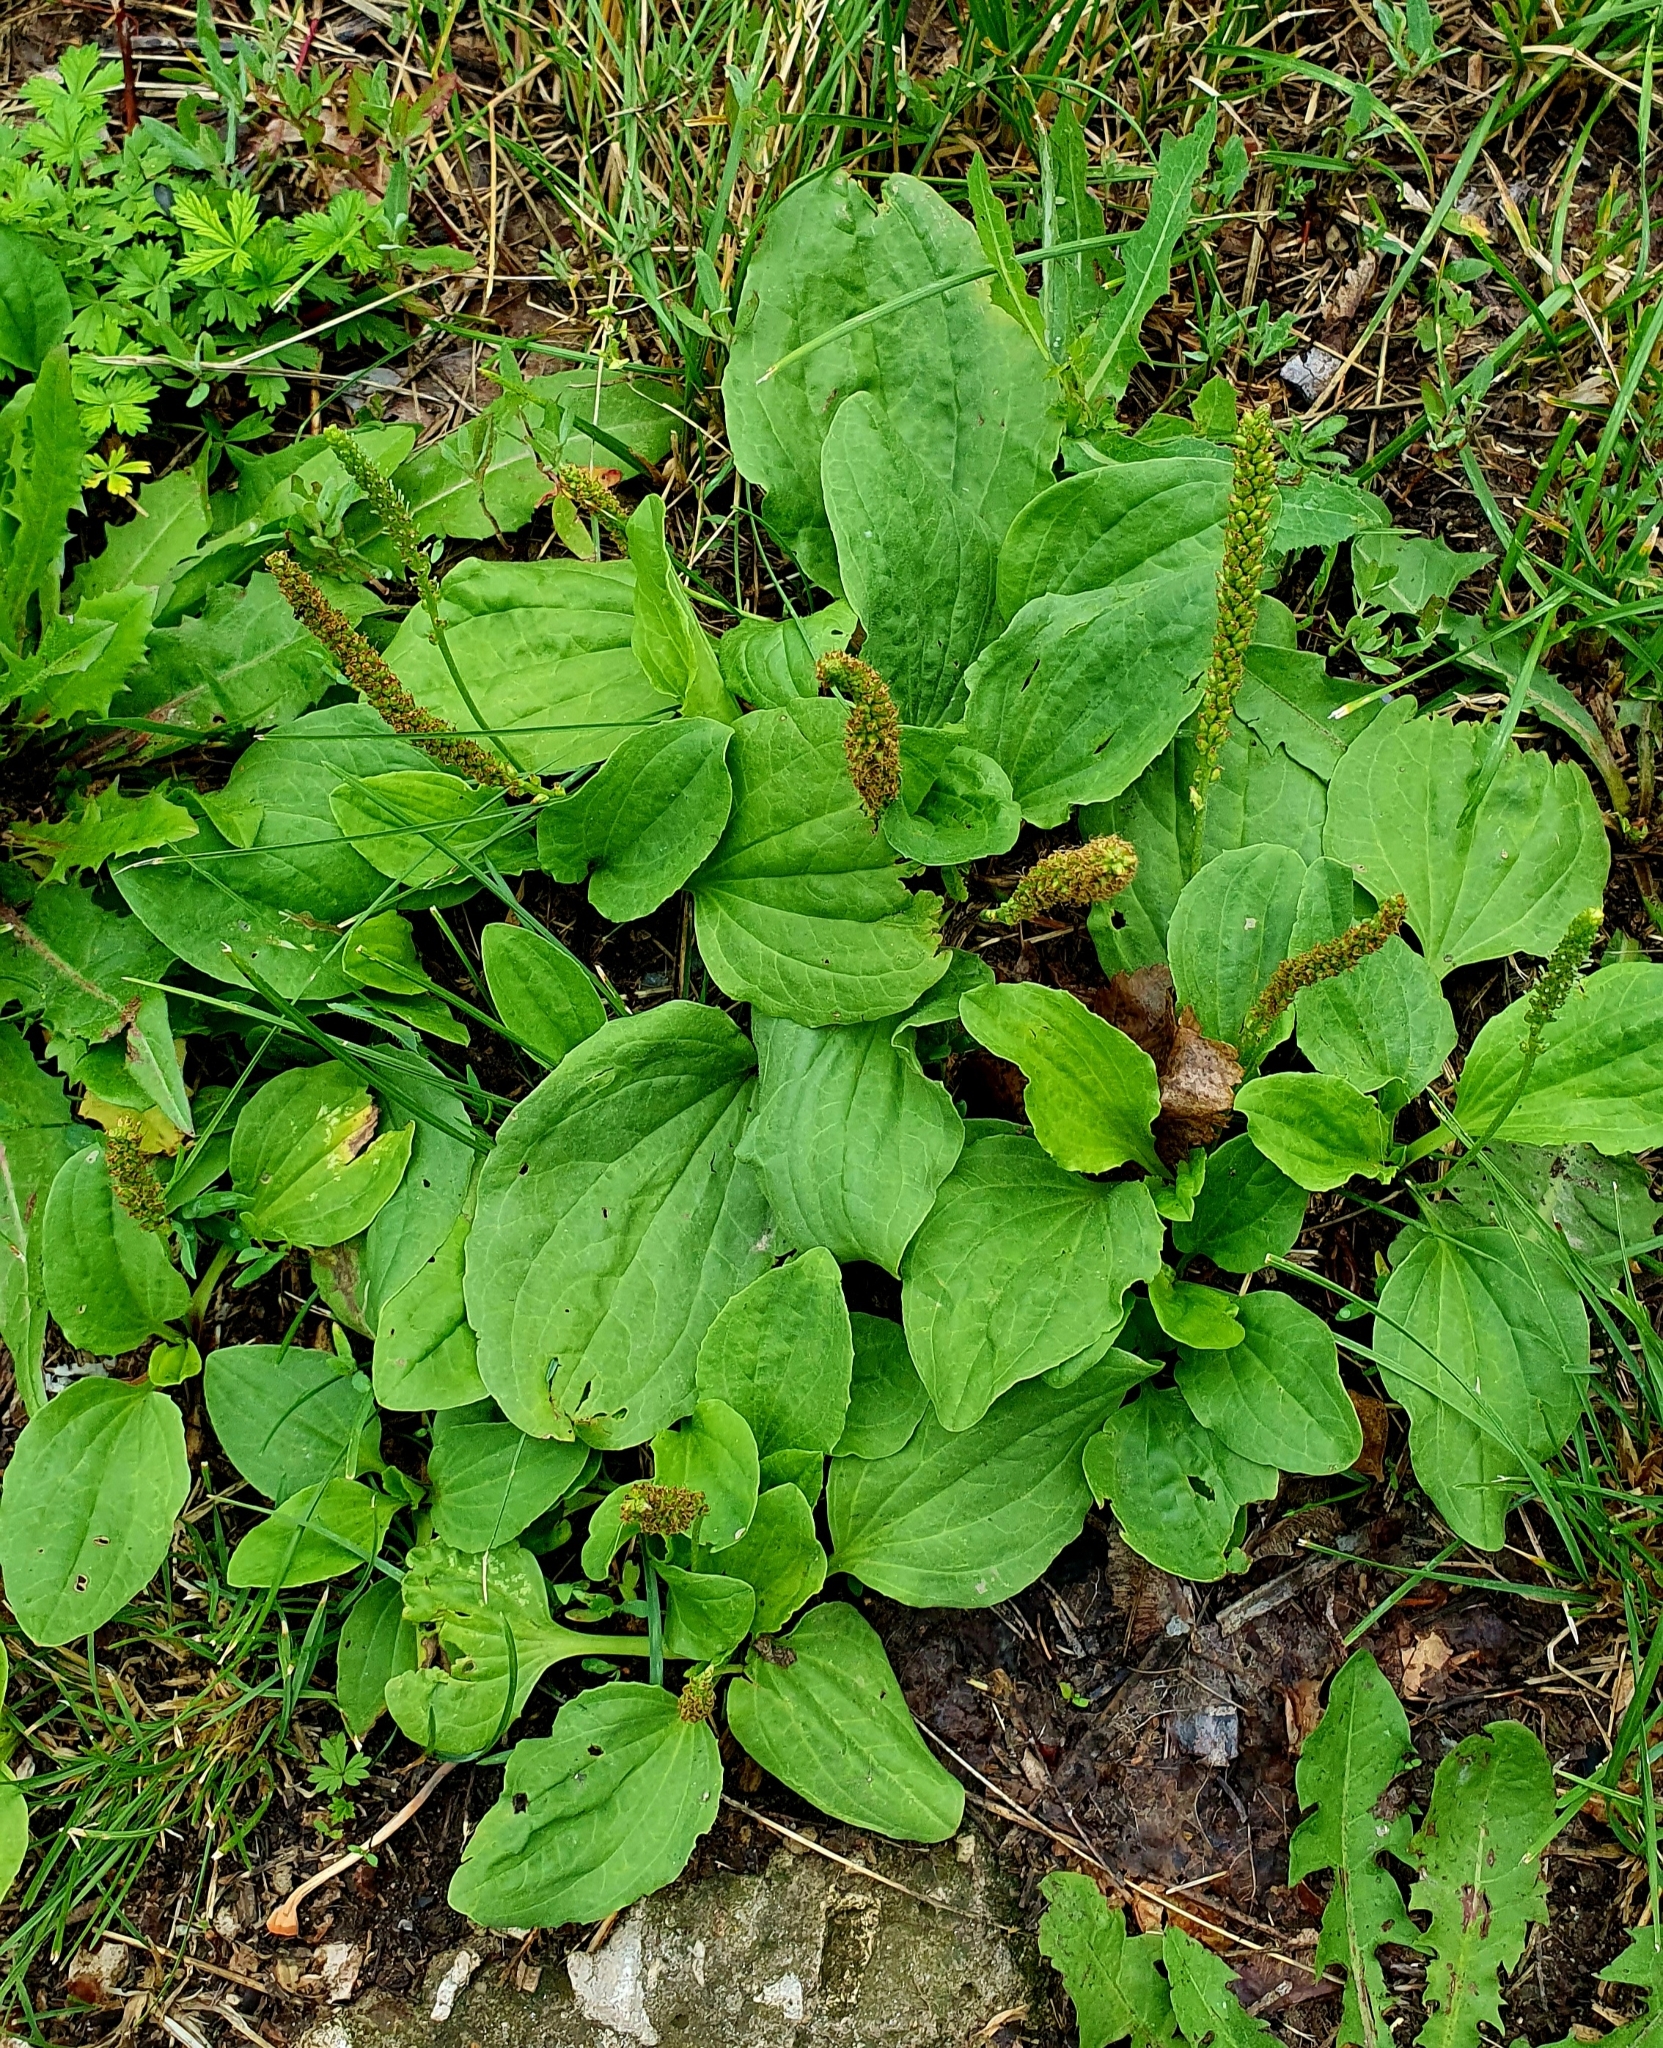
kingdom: Plantae
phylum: Tracheophyta
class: Magnoliopsida
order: Lamiales
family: Plantaginaceae
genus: Plantago
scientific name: Plantago major
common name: Common plantain
